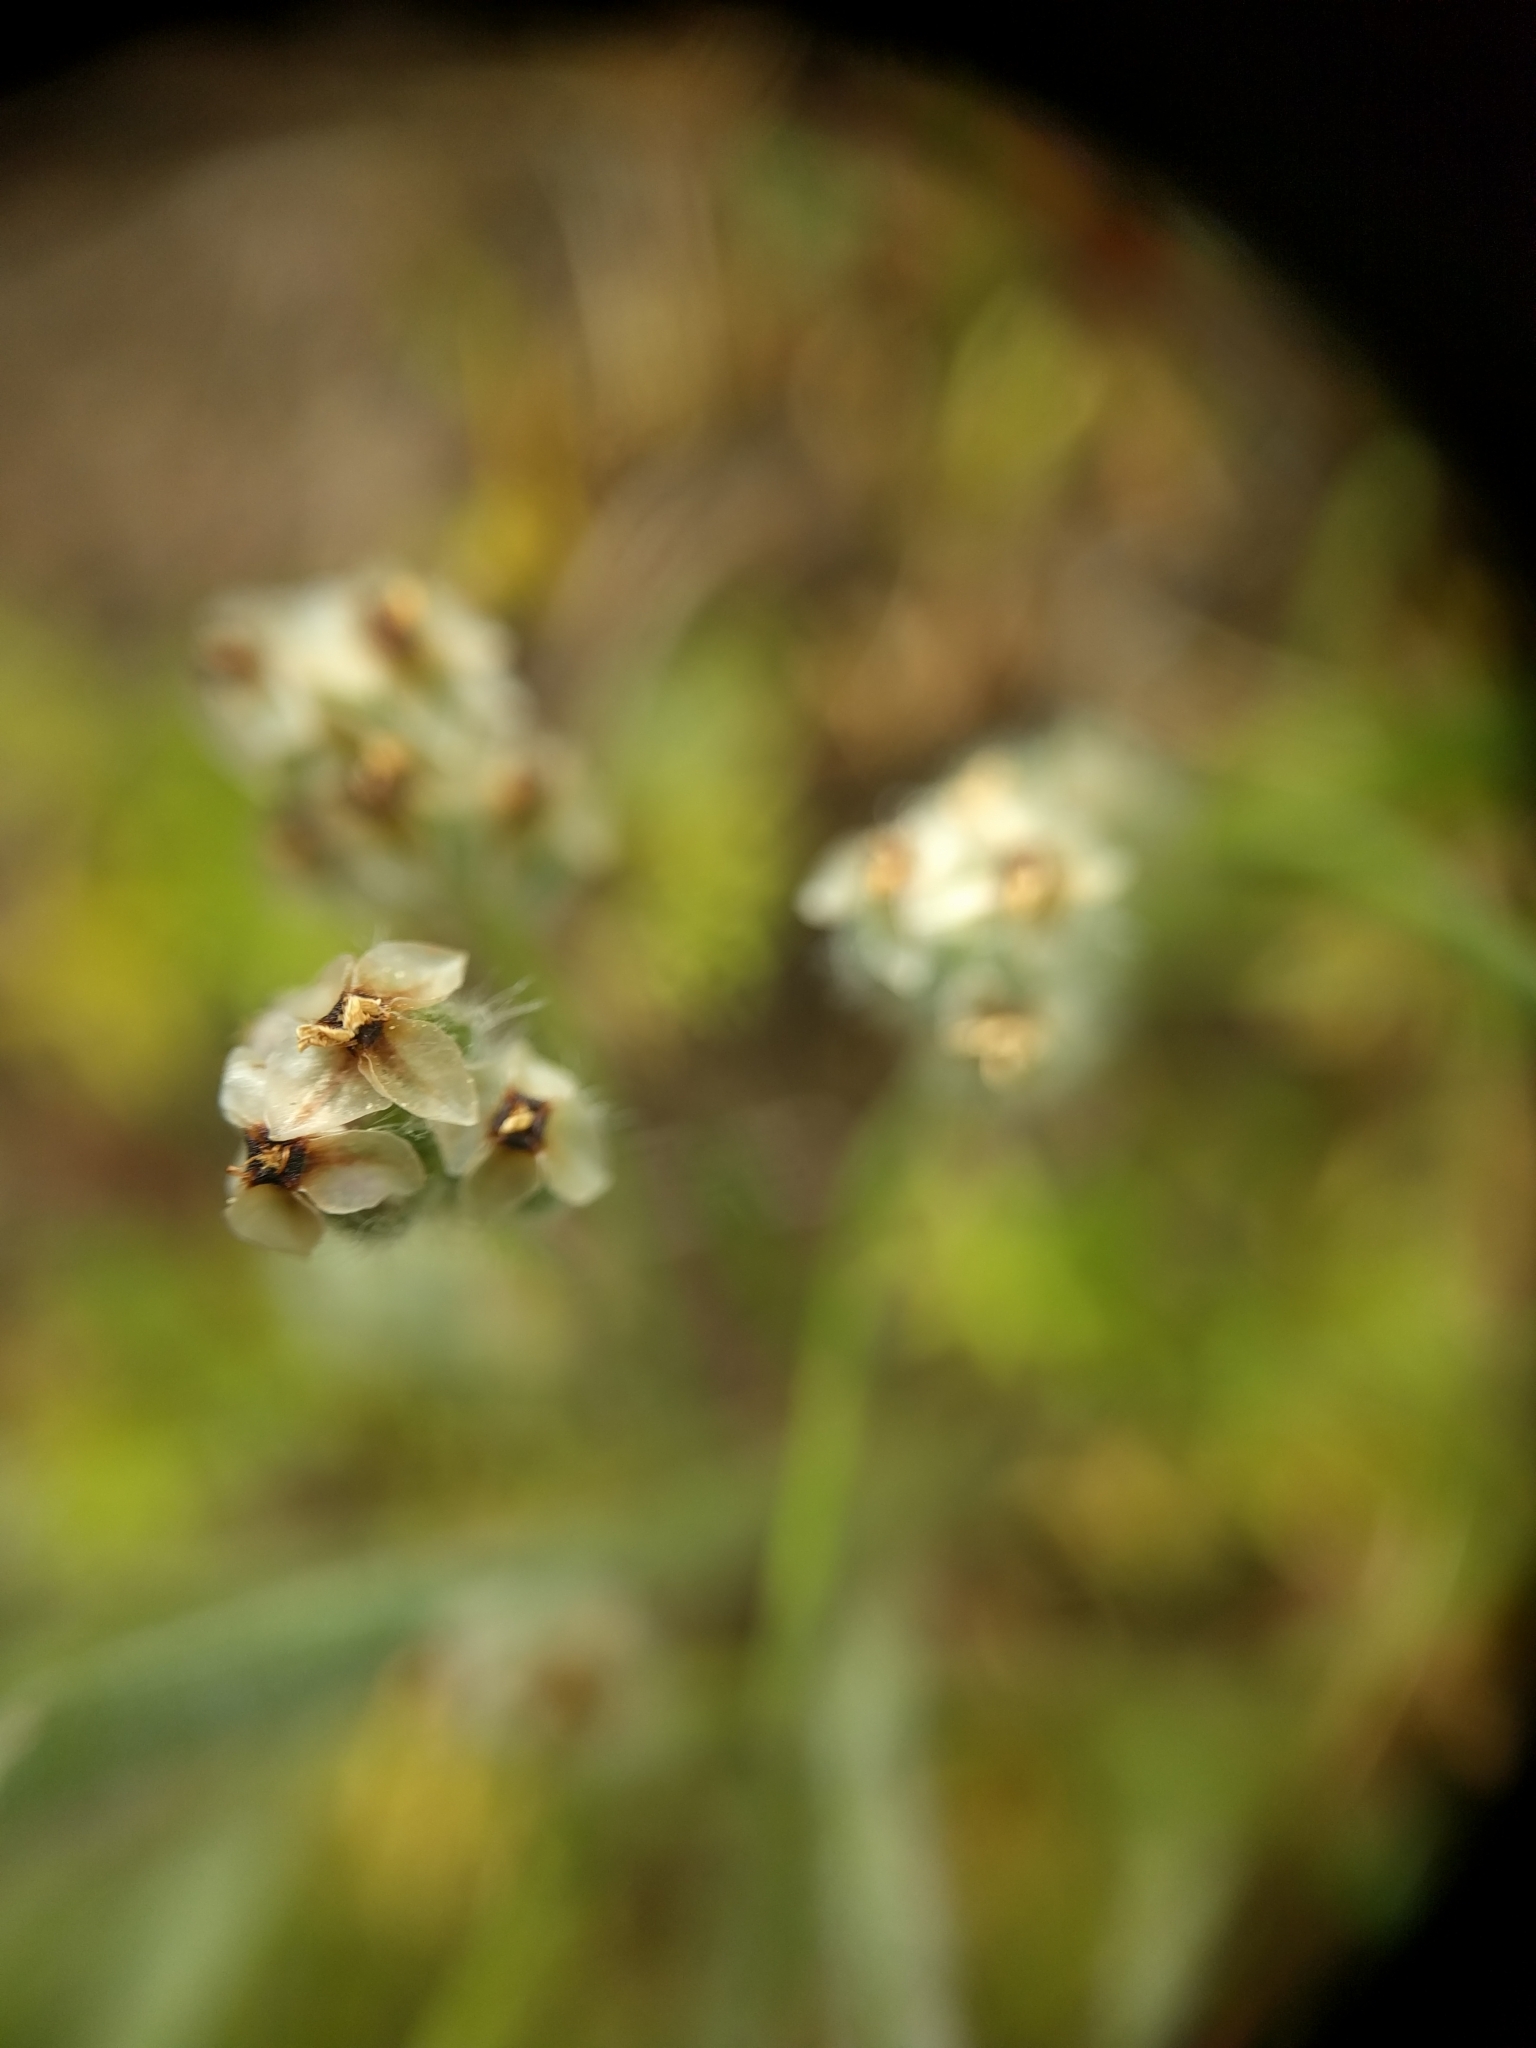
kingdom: Plantae
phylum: Tracheophyta
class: Magnoliopsida
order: Lamiales
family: Plantaginaceae
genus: Plantago
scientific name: Plantago erecta
